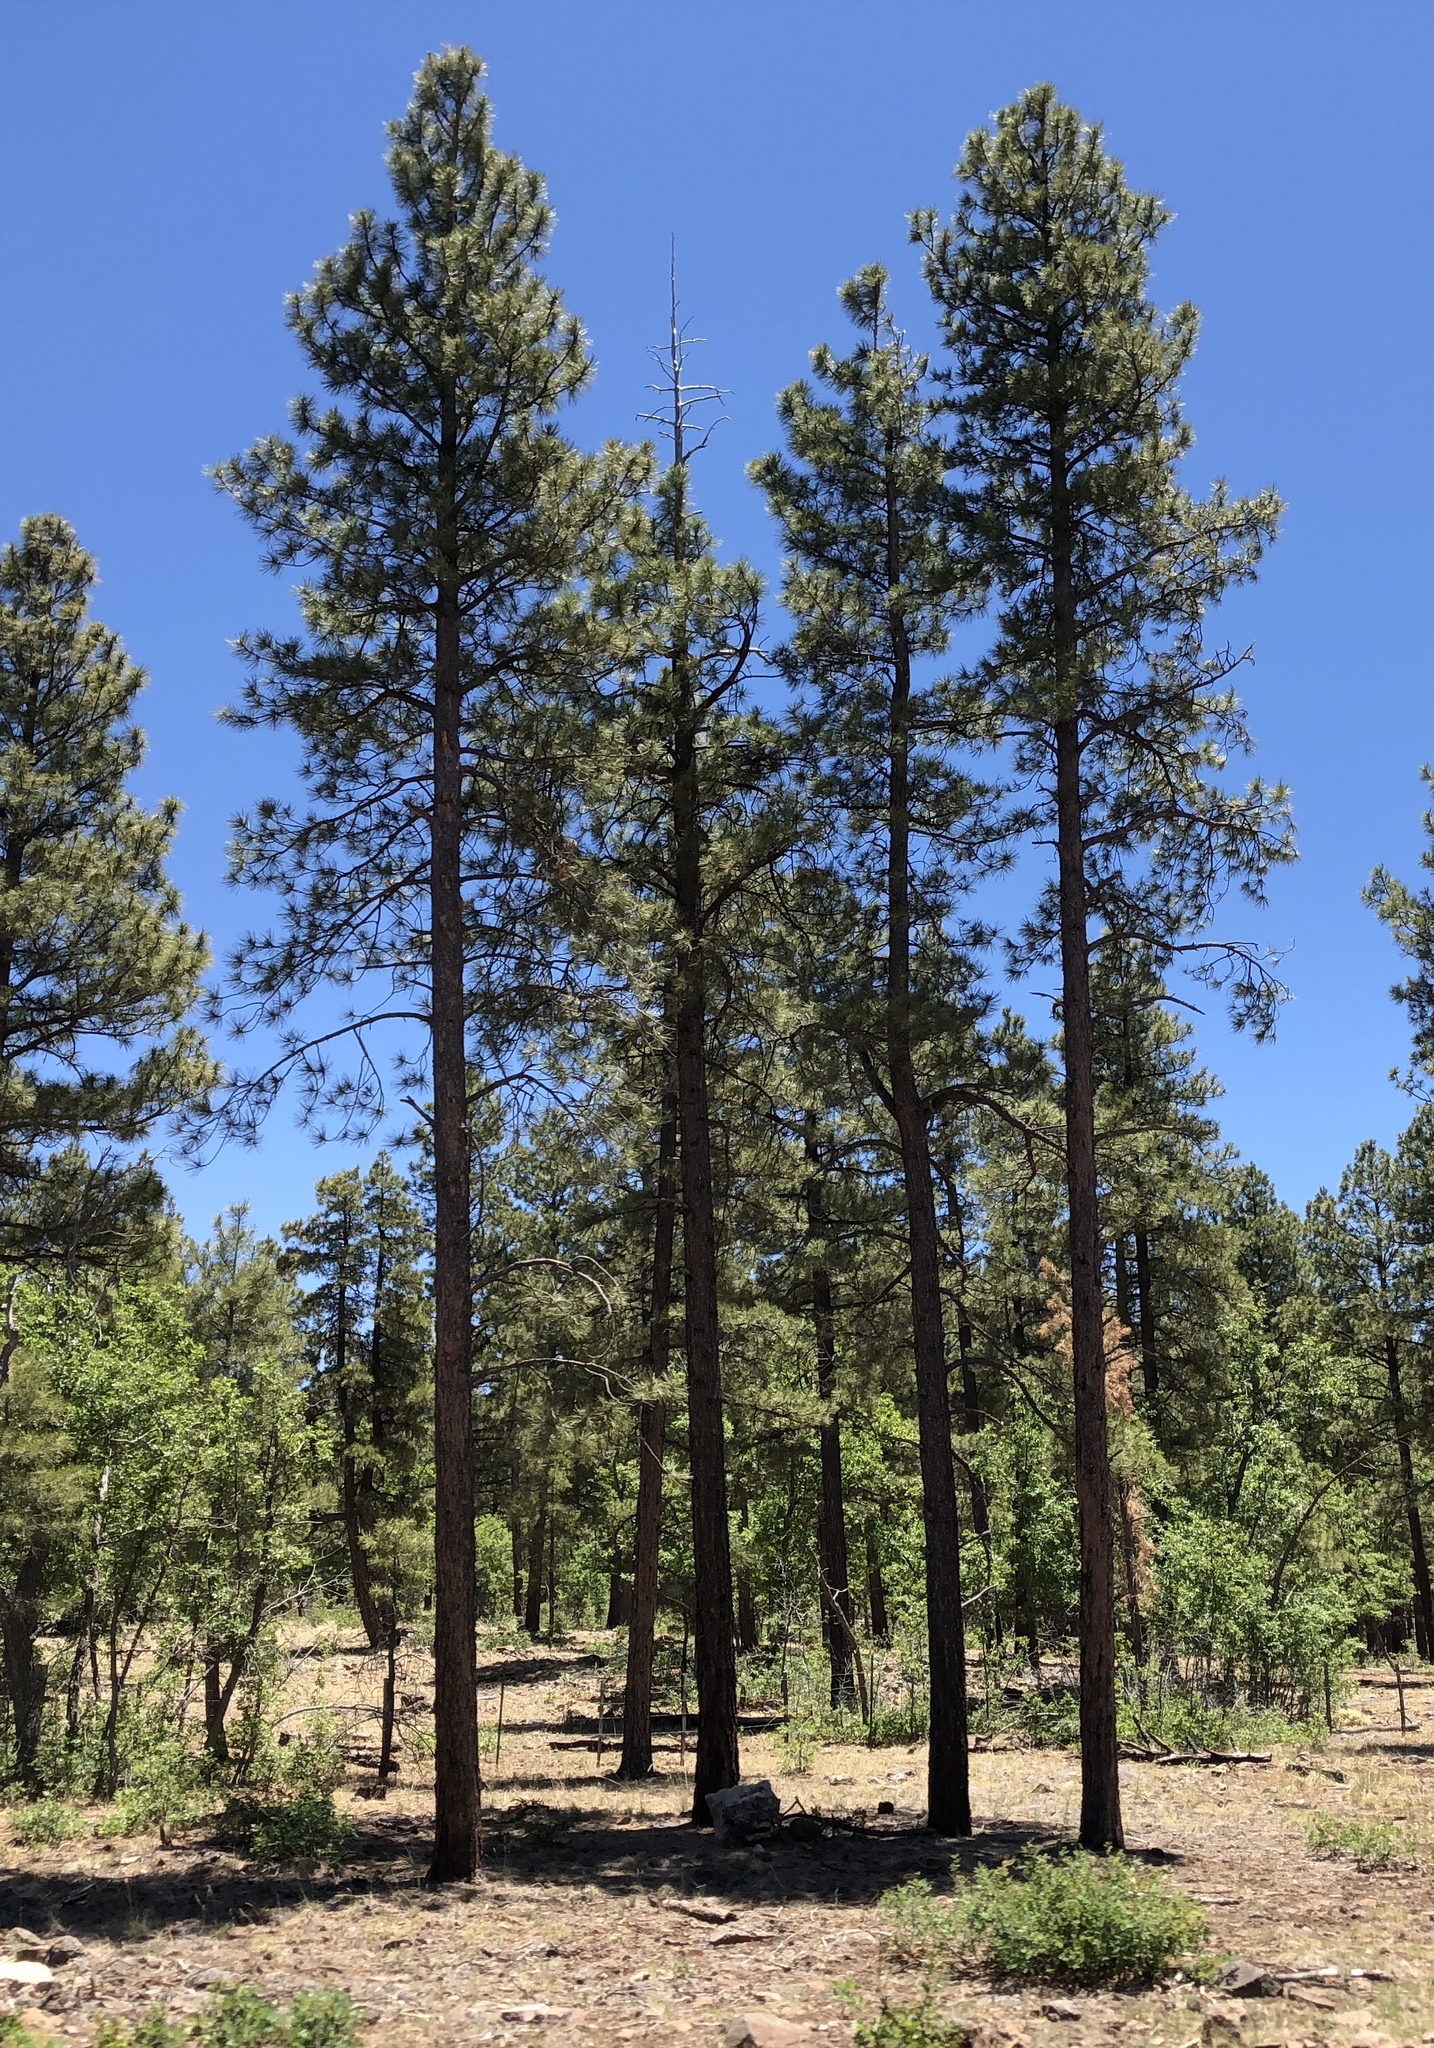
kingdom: Plantae
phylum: Tracheophyta
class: Pinopsida
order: Pinales
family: Pinaceae
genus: Pinus
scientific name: Pinus ponderosa
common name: Western yellow-pine
